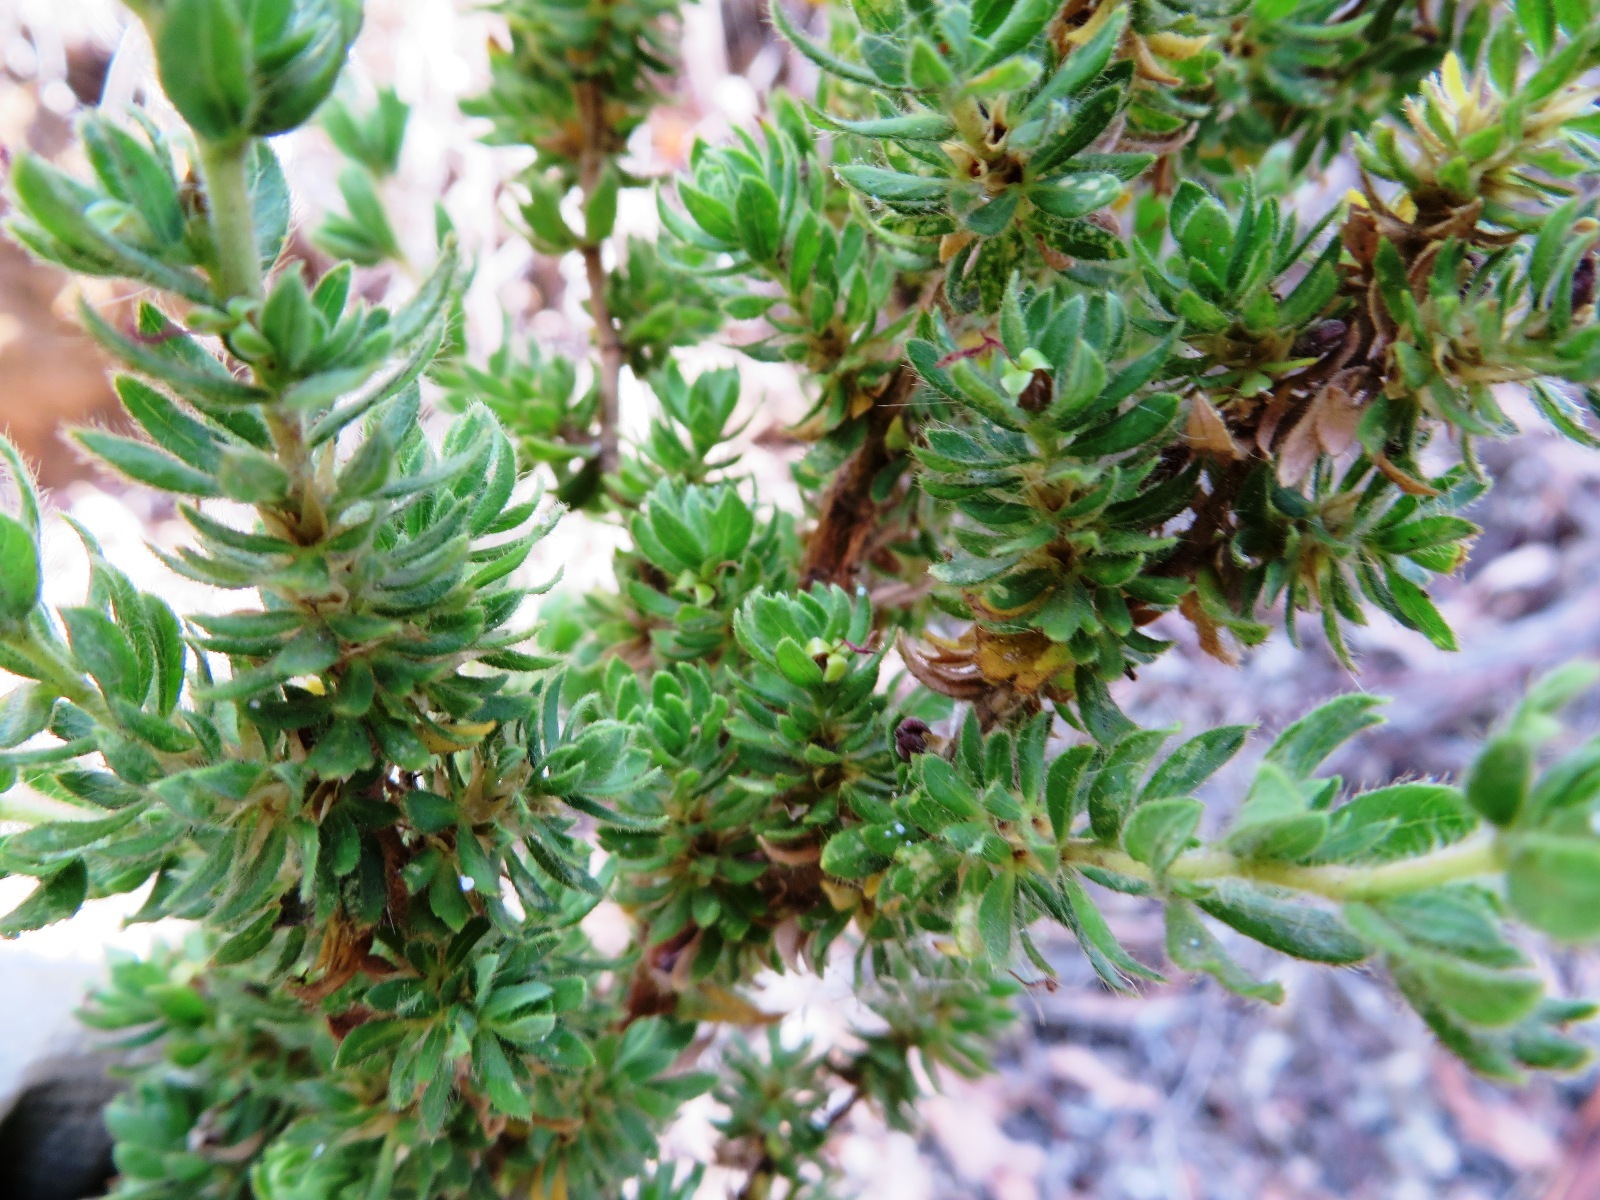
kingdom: Plantae
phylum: Tracheophyta
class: Magnoliopsida
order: Rosales
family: Rosaceae
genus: Cliffortia
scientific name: Cliffortia polygonifolia
